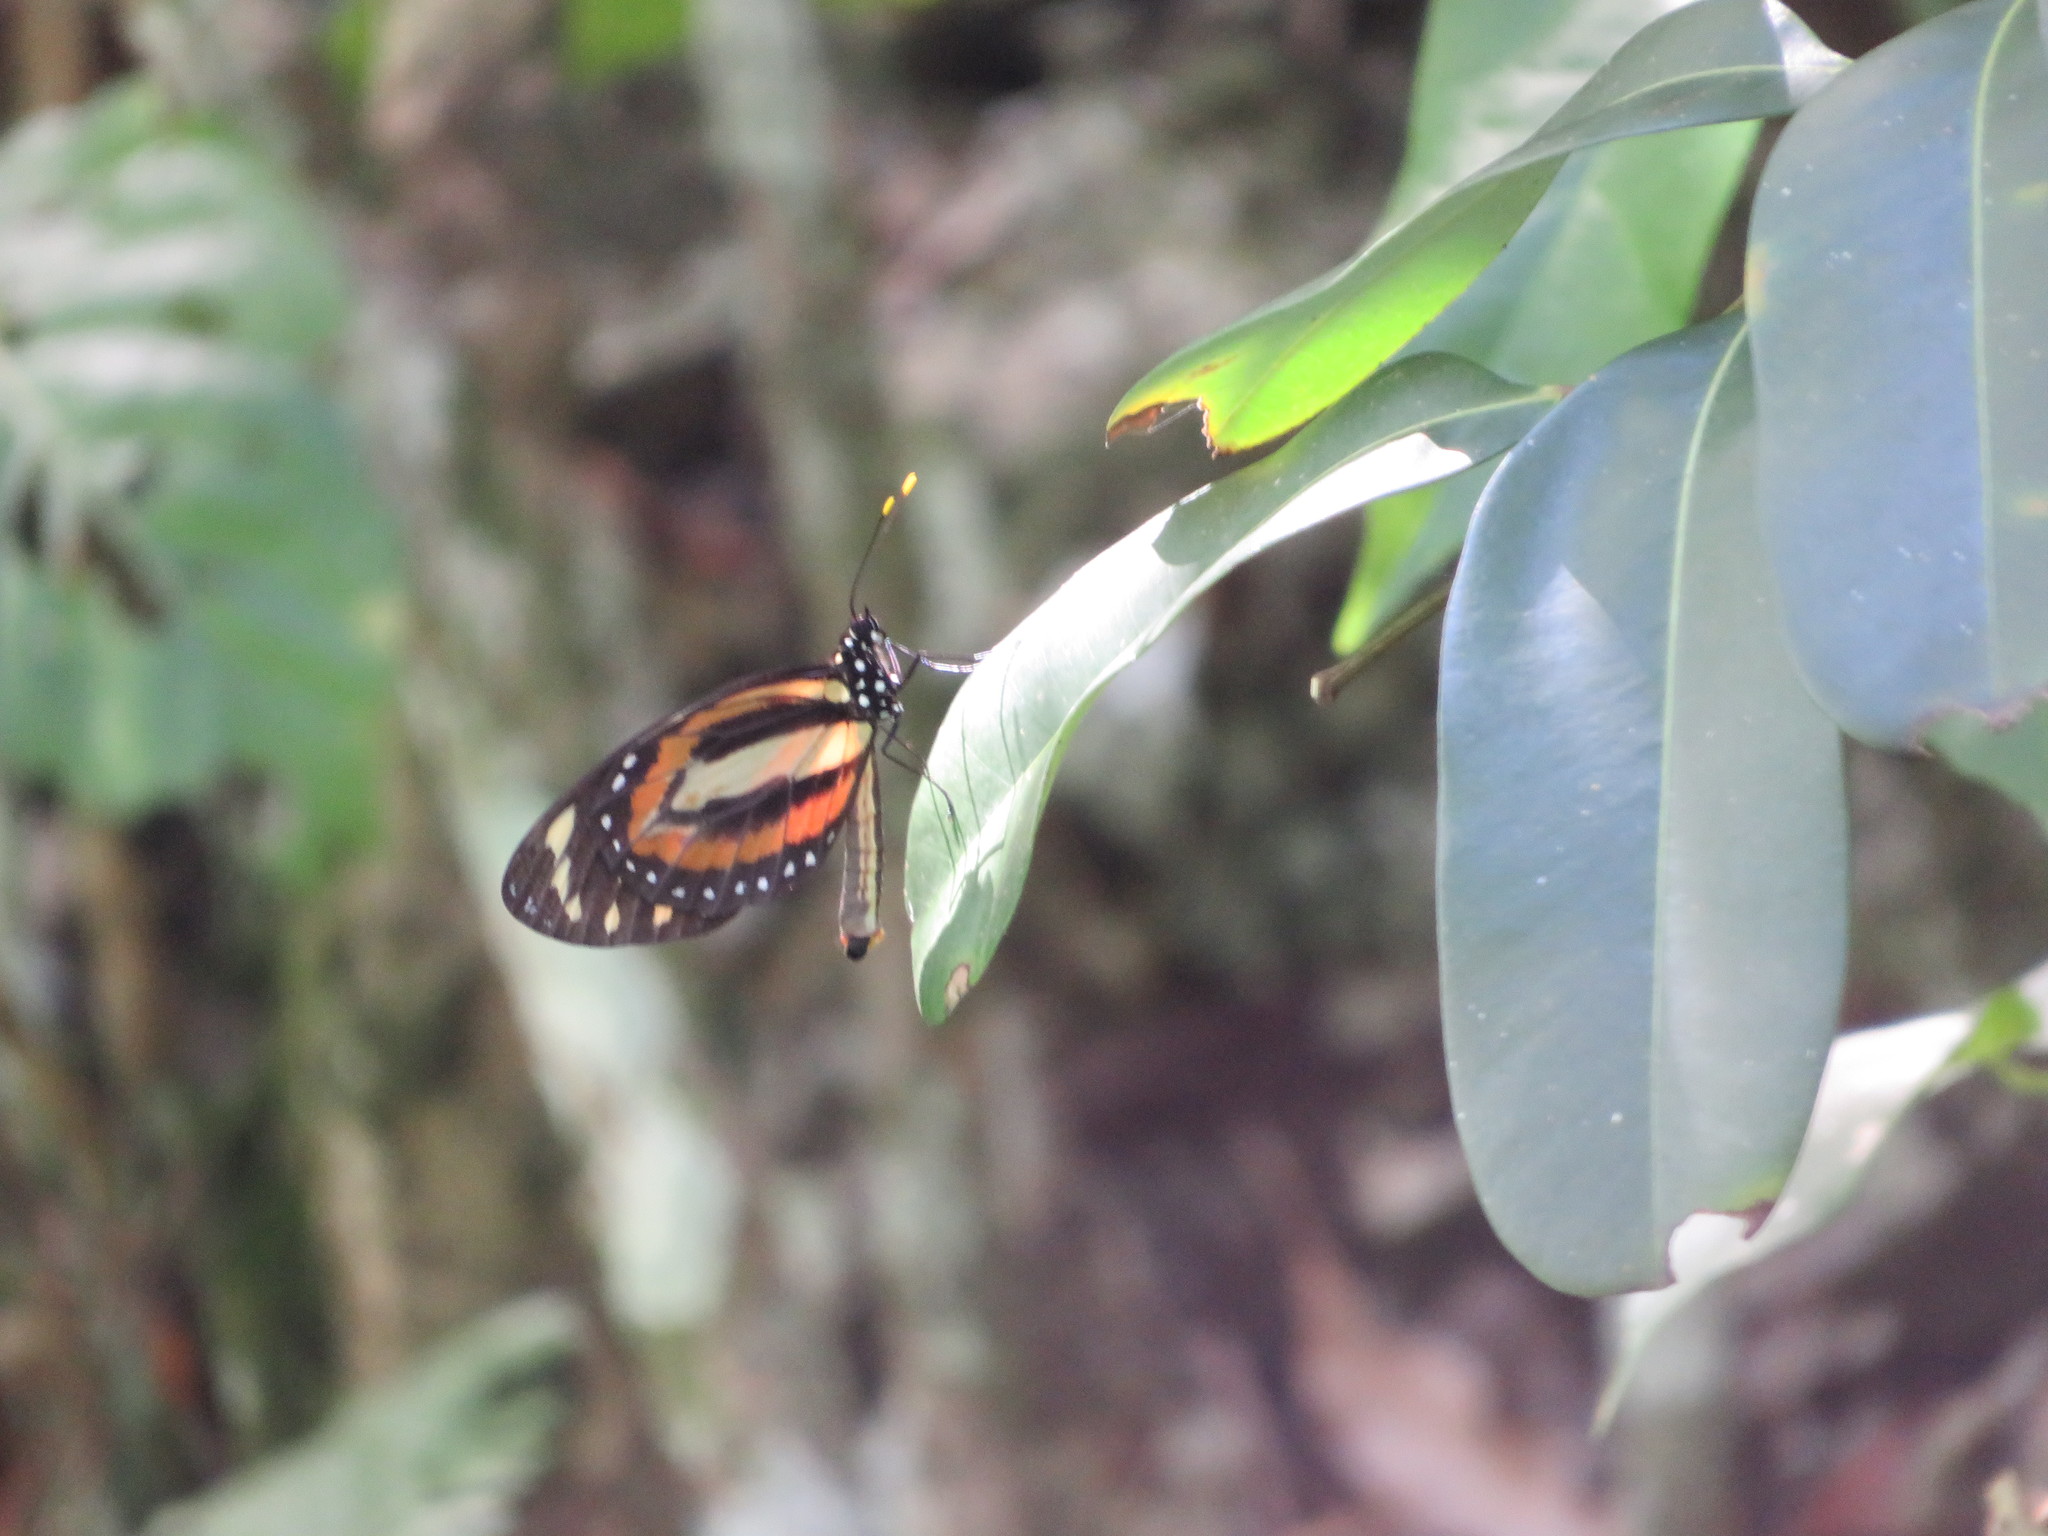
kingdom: Animalia
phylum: Arthropoda
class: Insecta
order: Lepidoptera
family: Nymphalidae
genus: Lycorea
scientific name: Lycorea cleobaea
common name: Tiger mimic-queen
